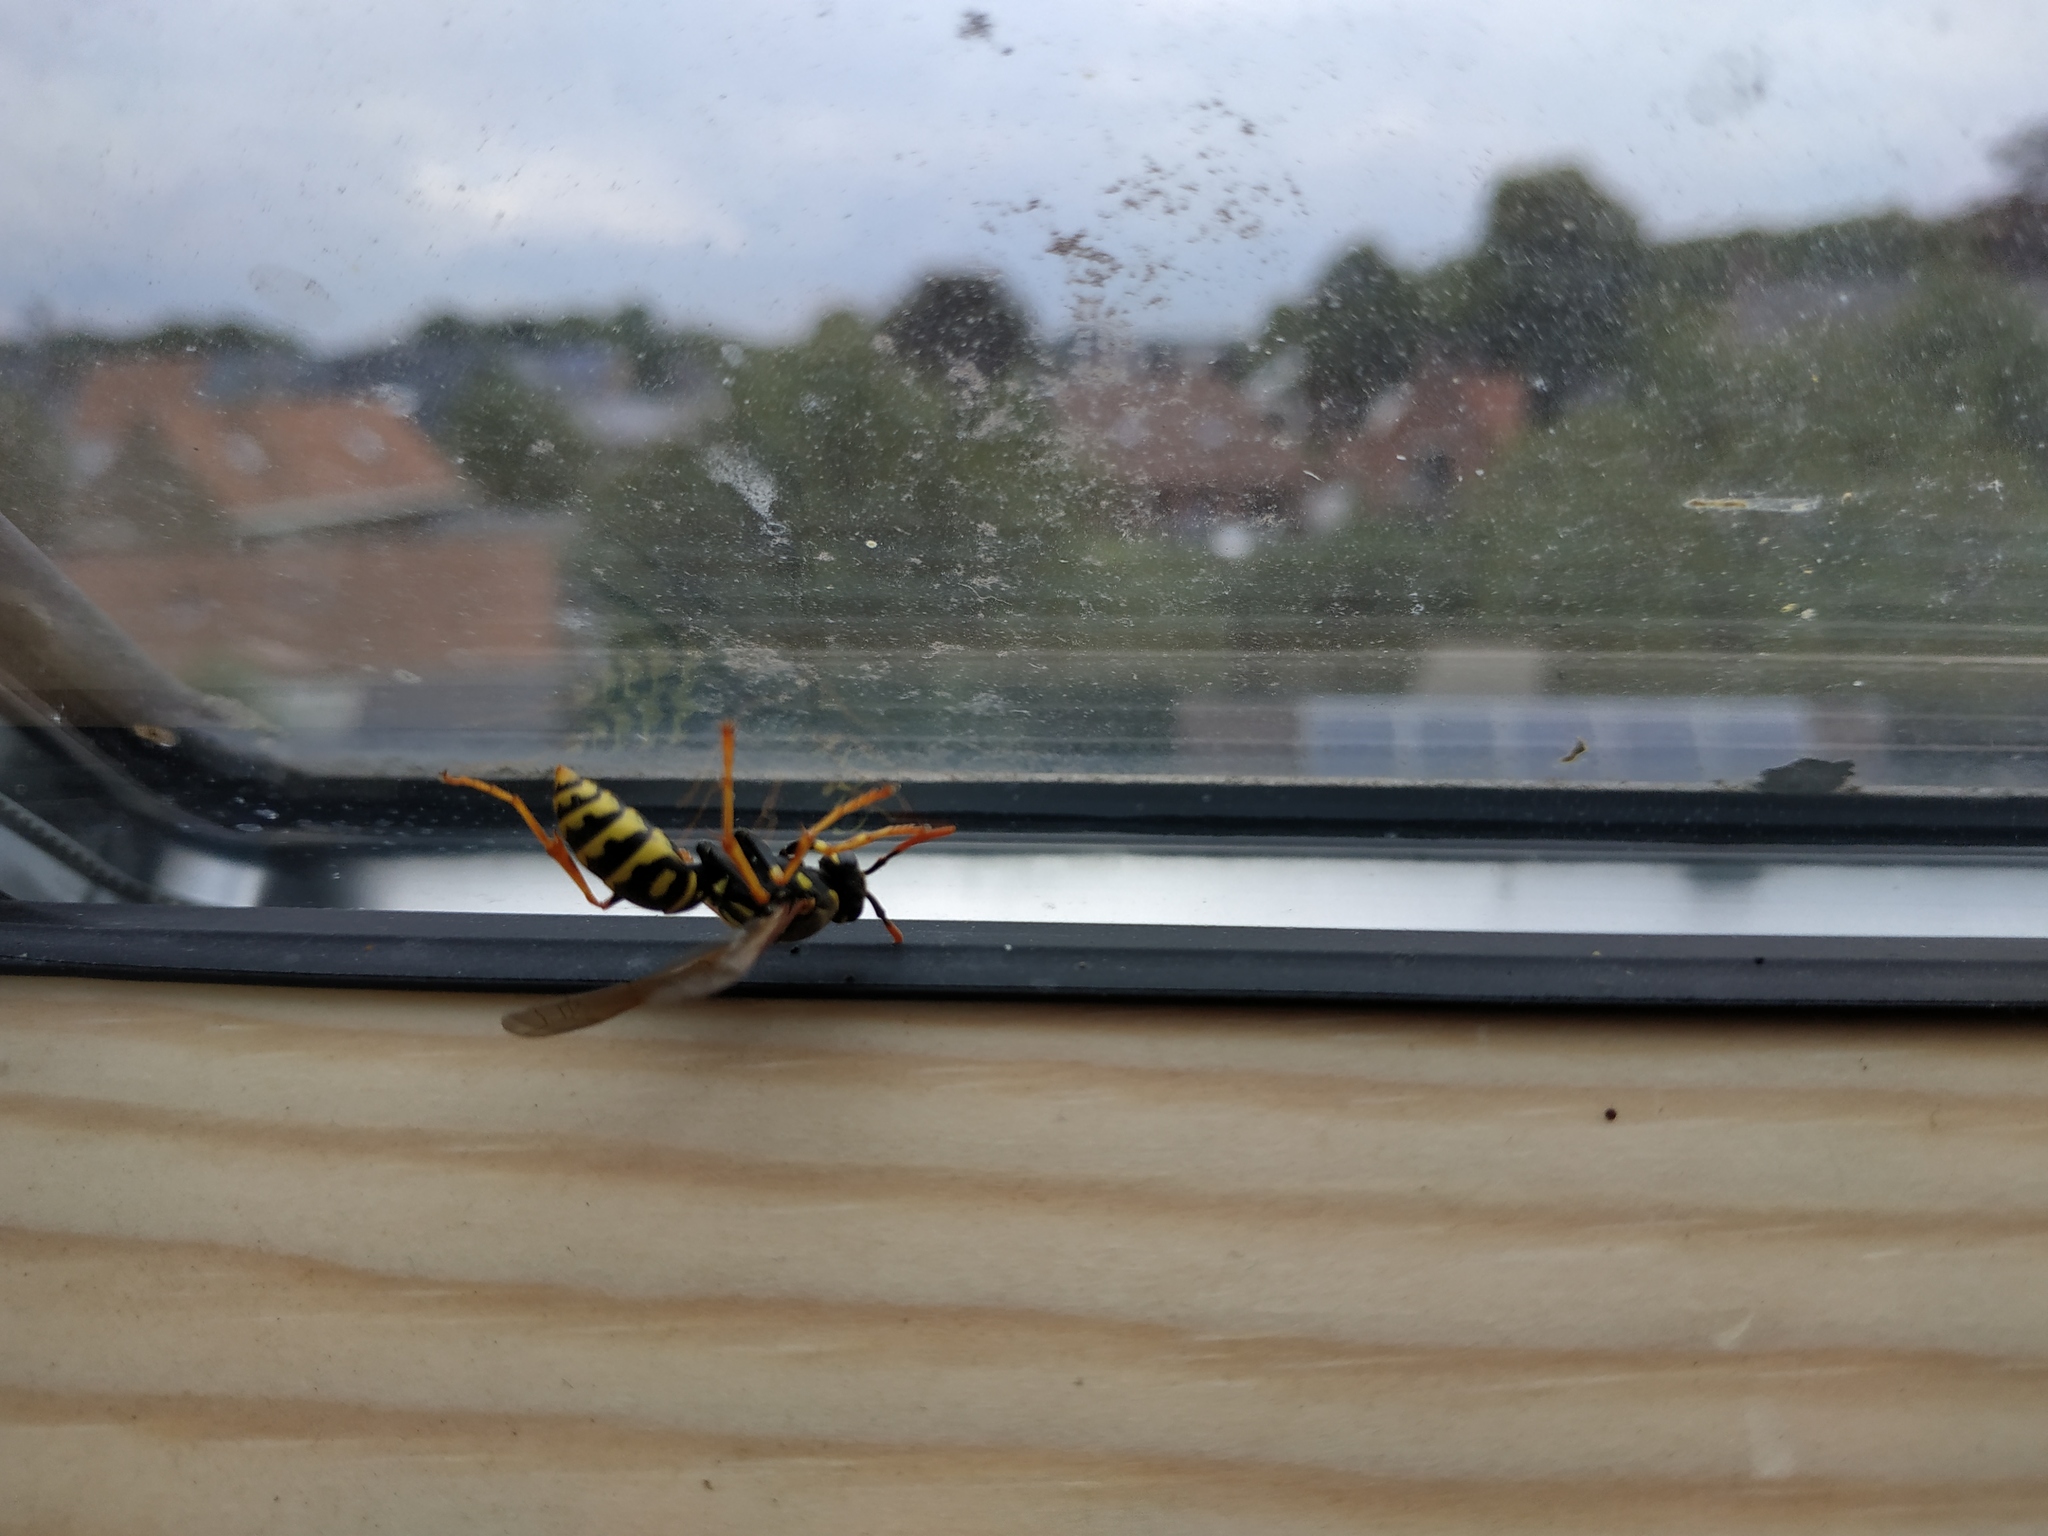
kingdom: Animalia
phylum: Arthropoda
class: Insecta
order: Hymenoptera
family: Eumenidae
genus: Polistes
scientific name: Polistes dominula
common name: Paper wasp
